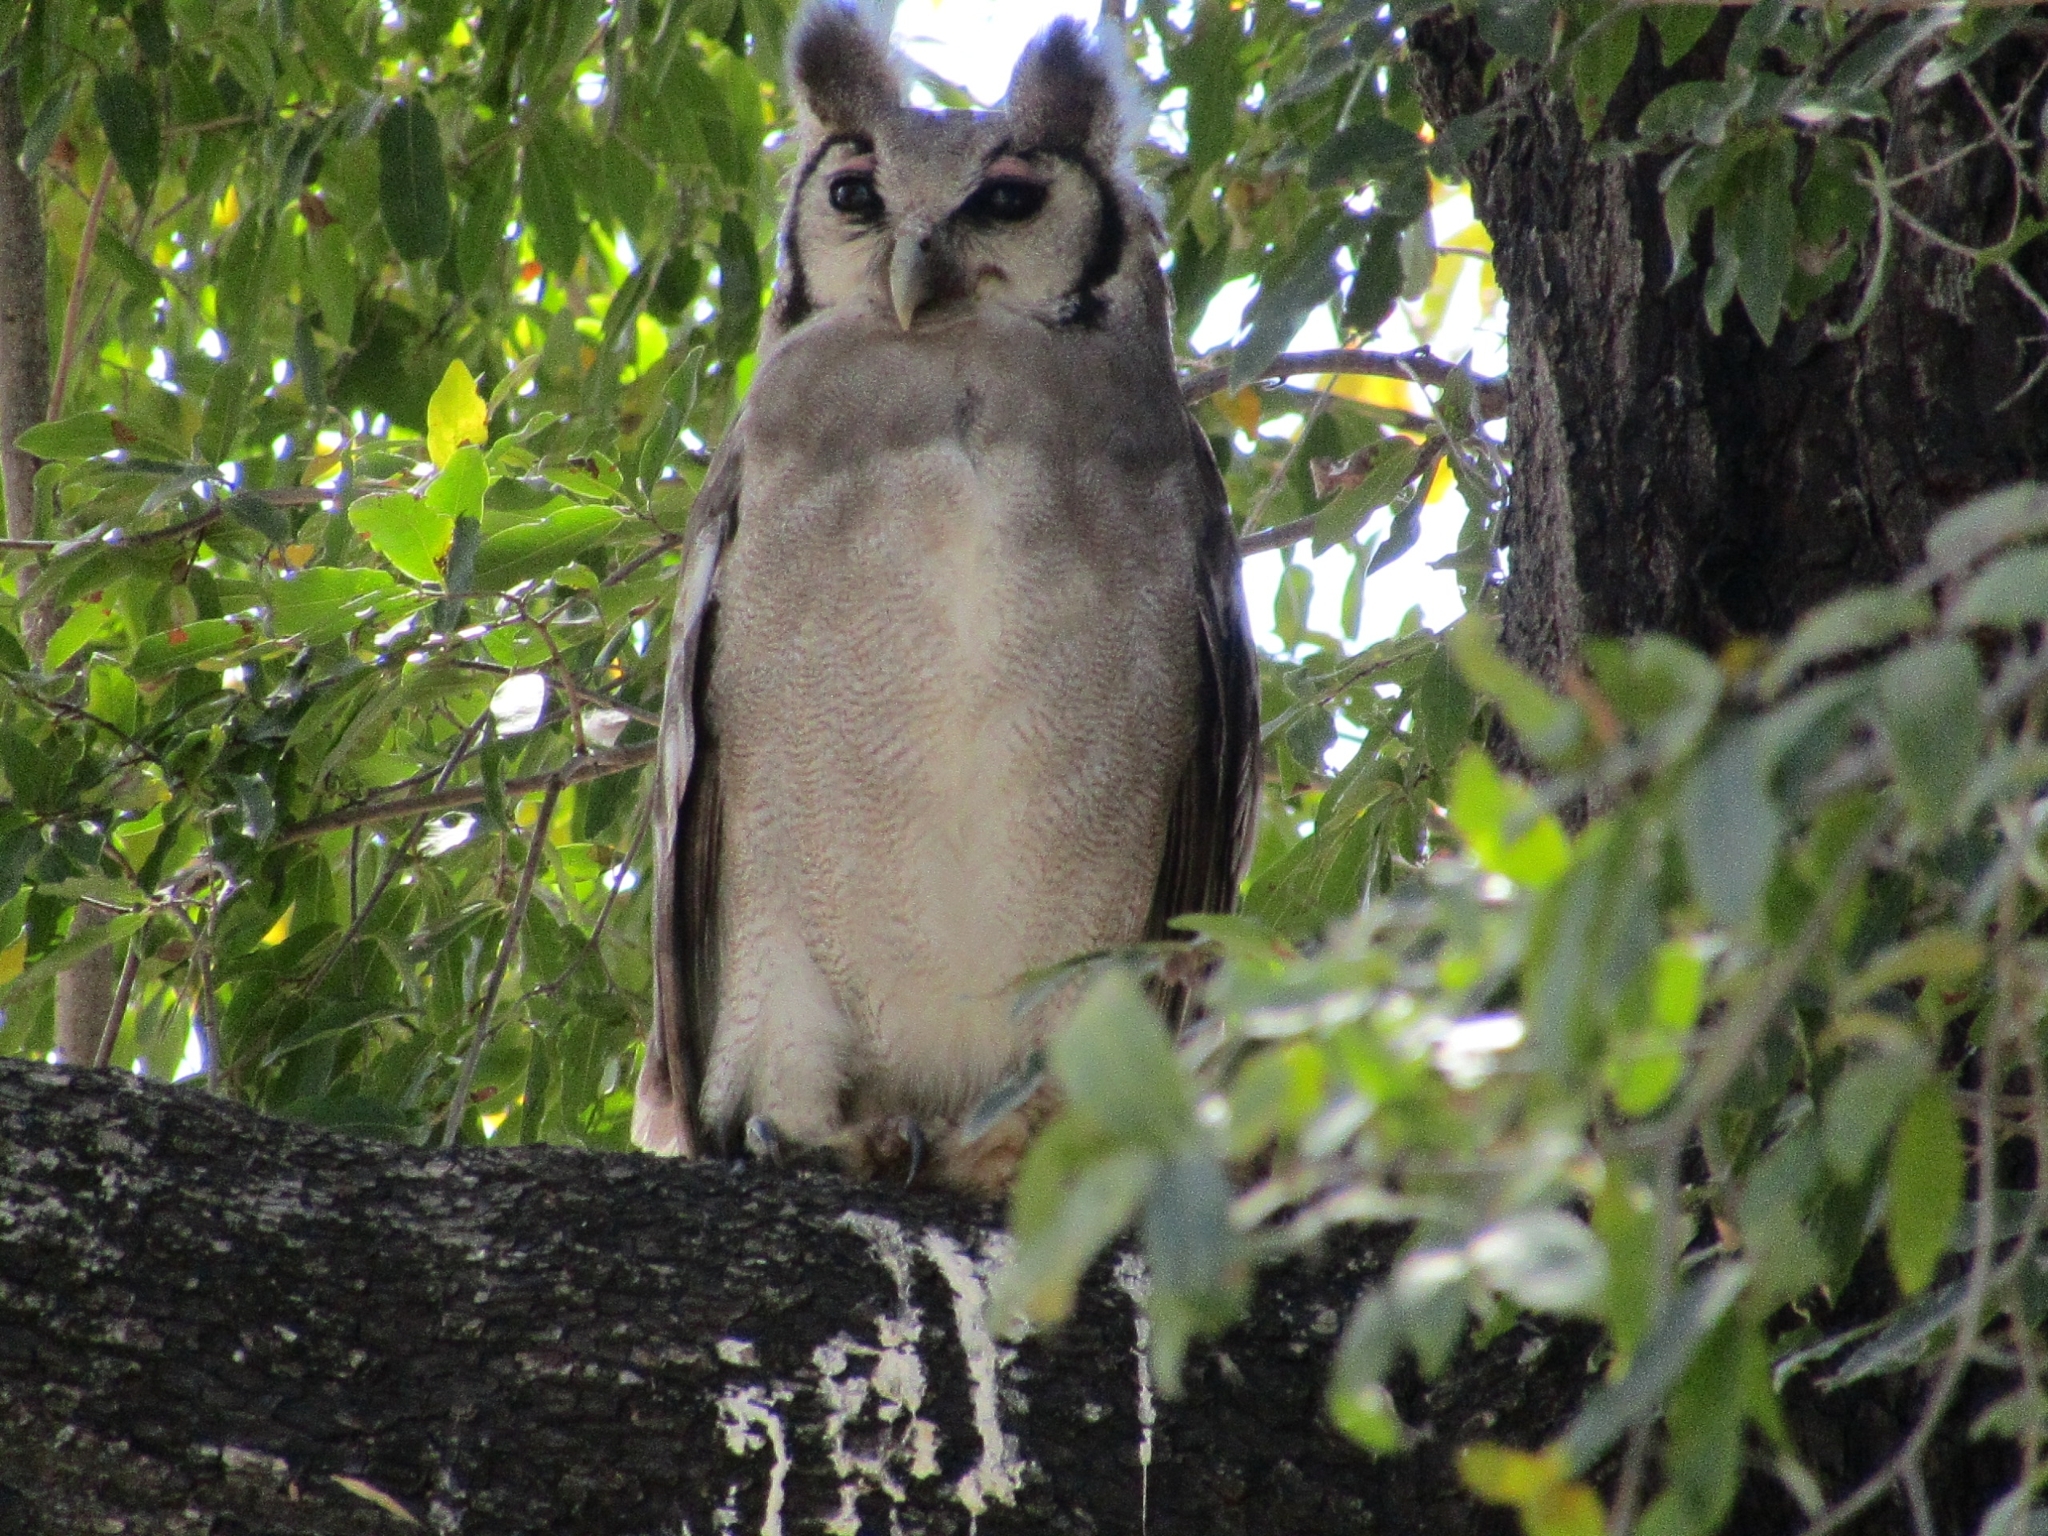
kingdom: Animalia
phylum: Chordata
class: Aves
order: Strigiformes
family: Strigidae
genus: Bubo
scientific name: Bubo lacteus
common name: Verreaux's eagle-owl
